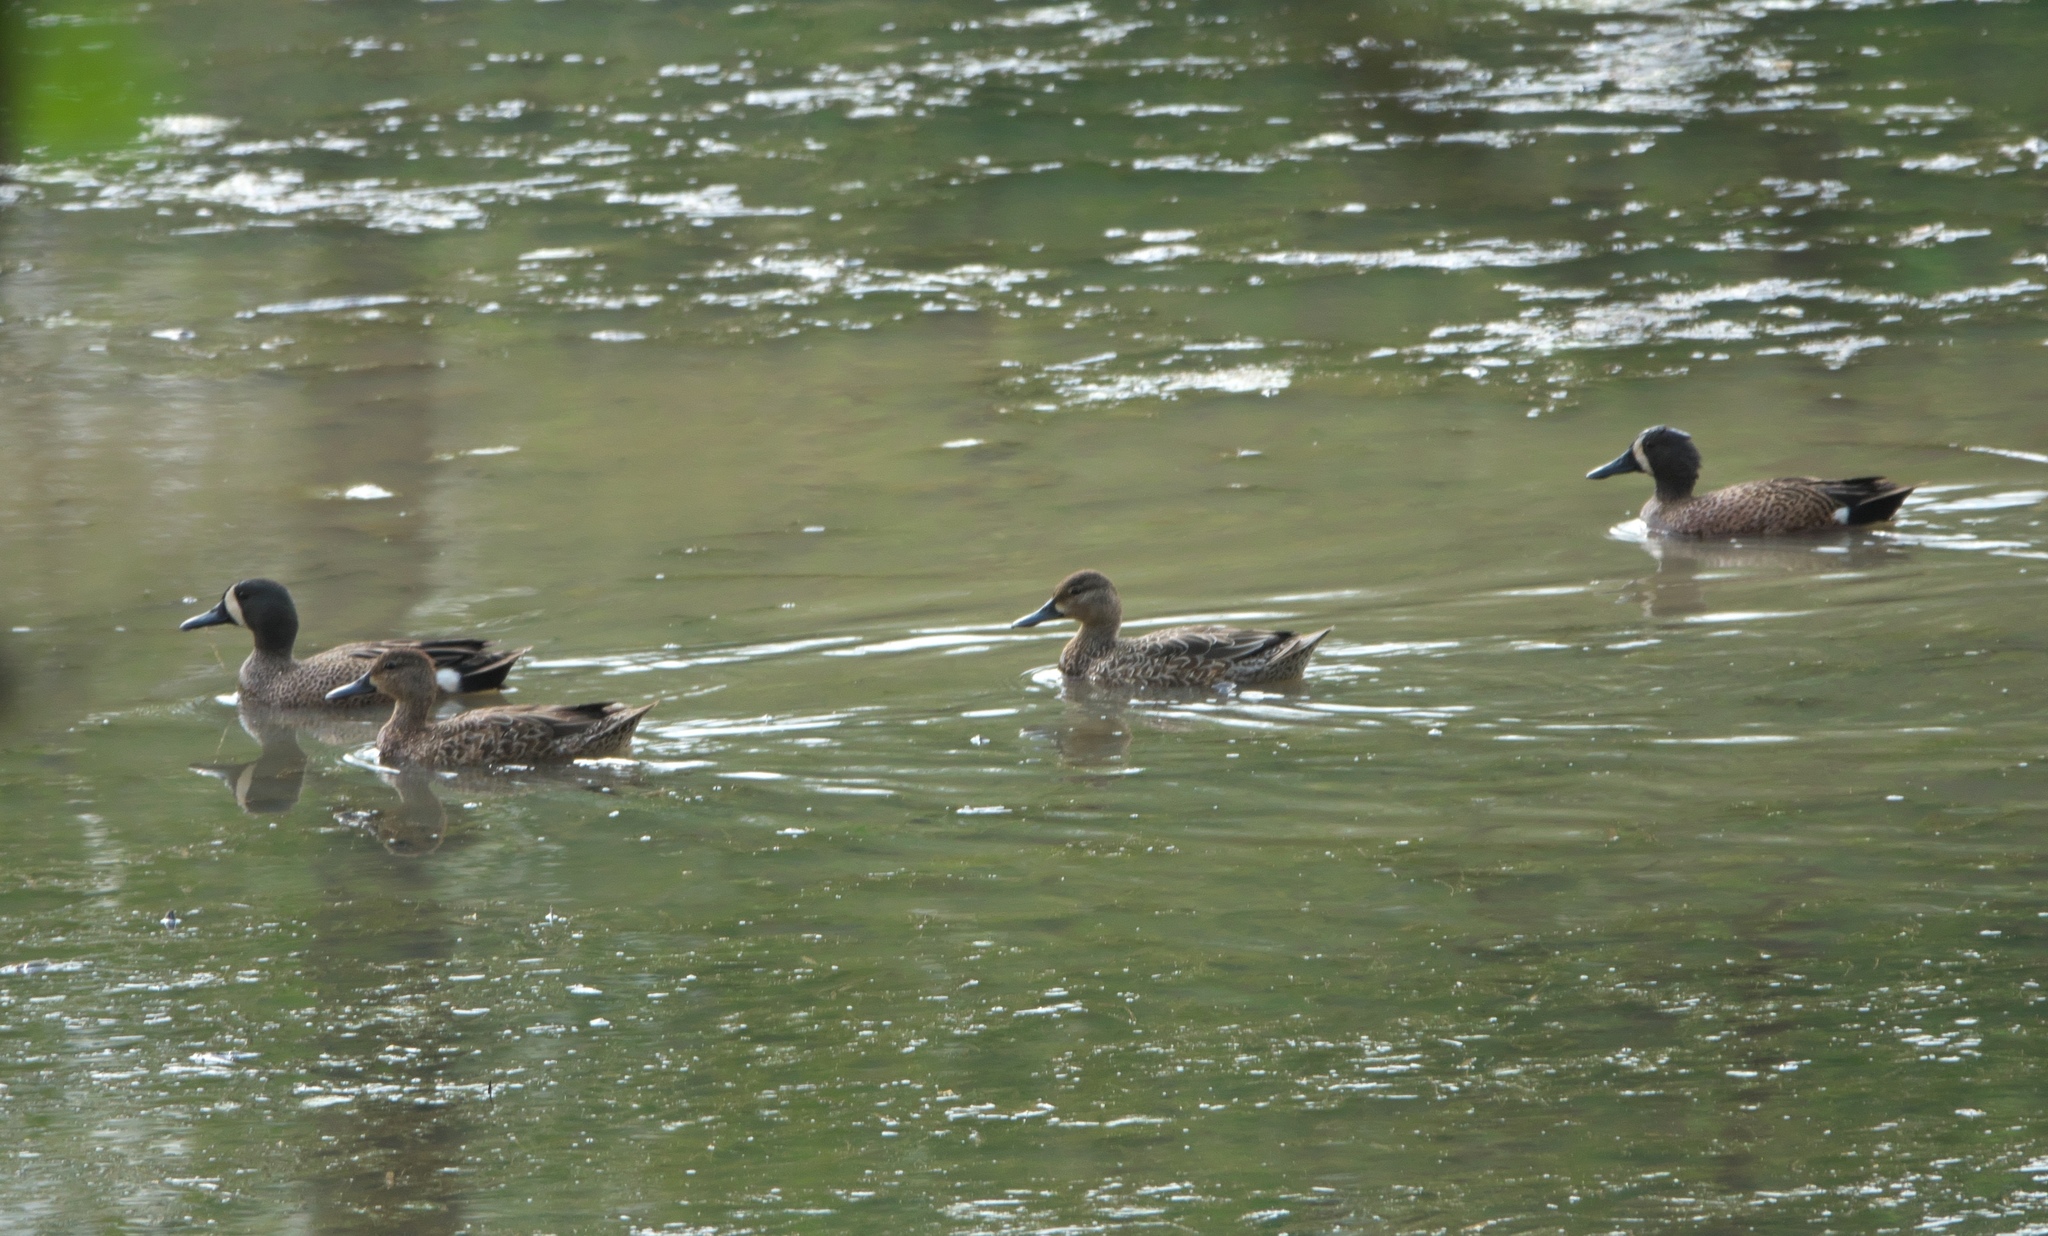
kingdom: Animalia
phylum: Chordata
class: Aves
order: Anseriformes
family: Anatidae
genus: Spatula
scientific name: Spatula discors
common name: Blue-winged teal
